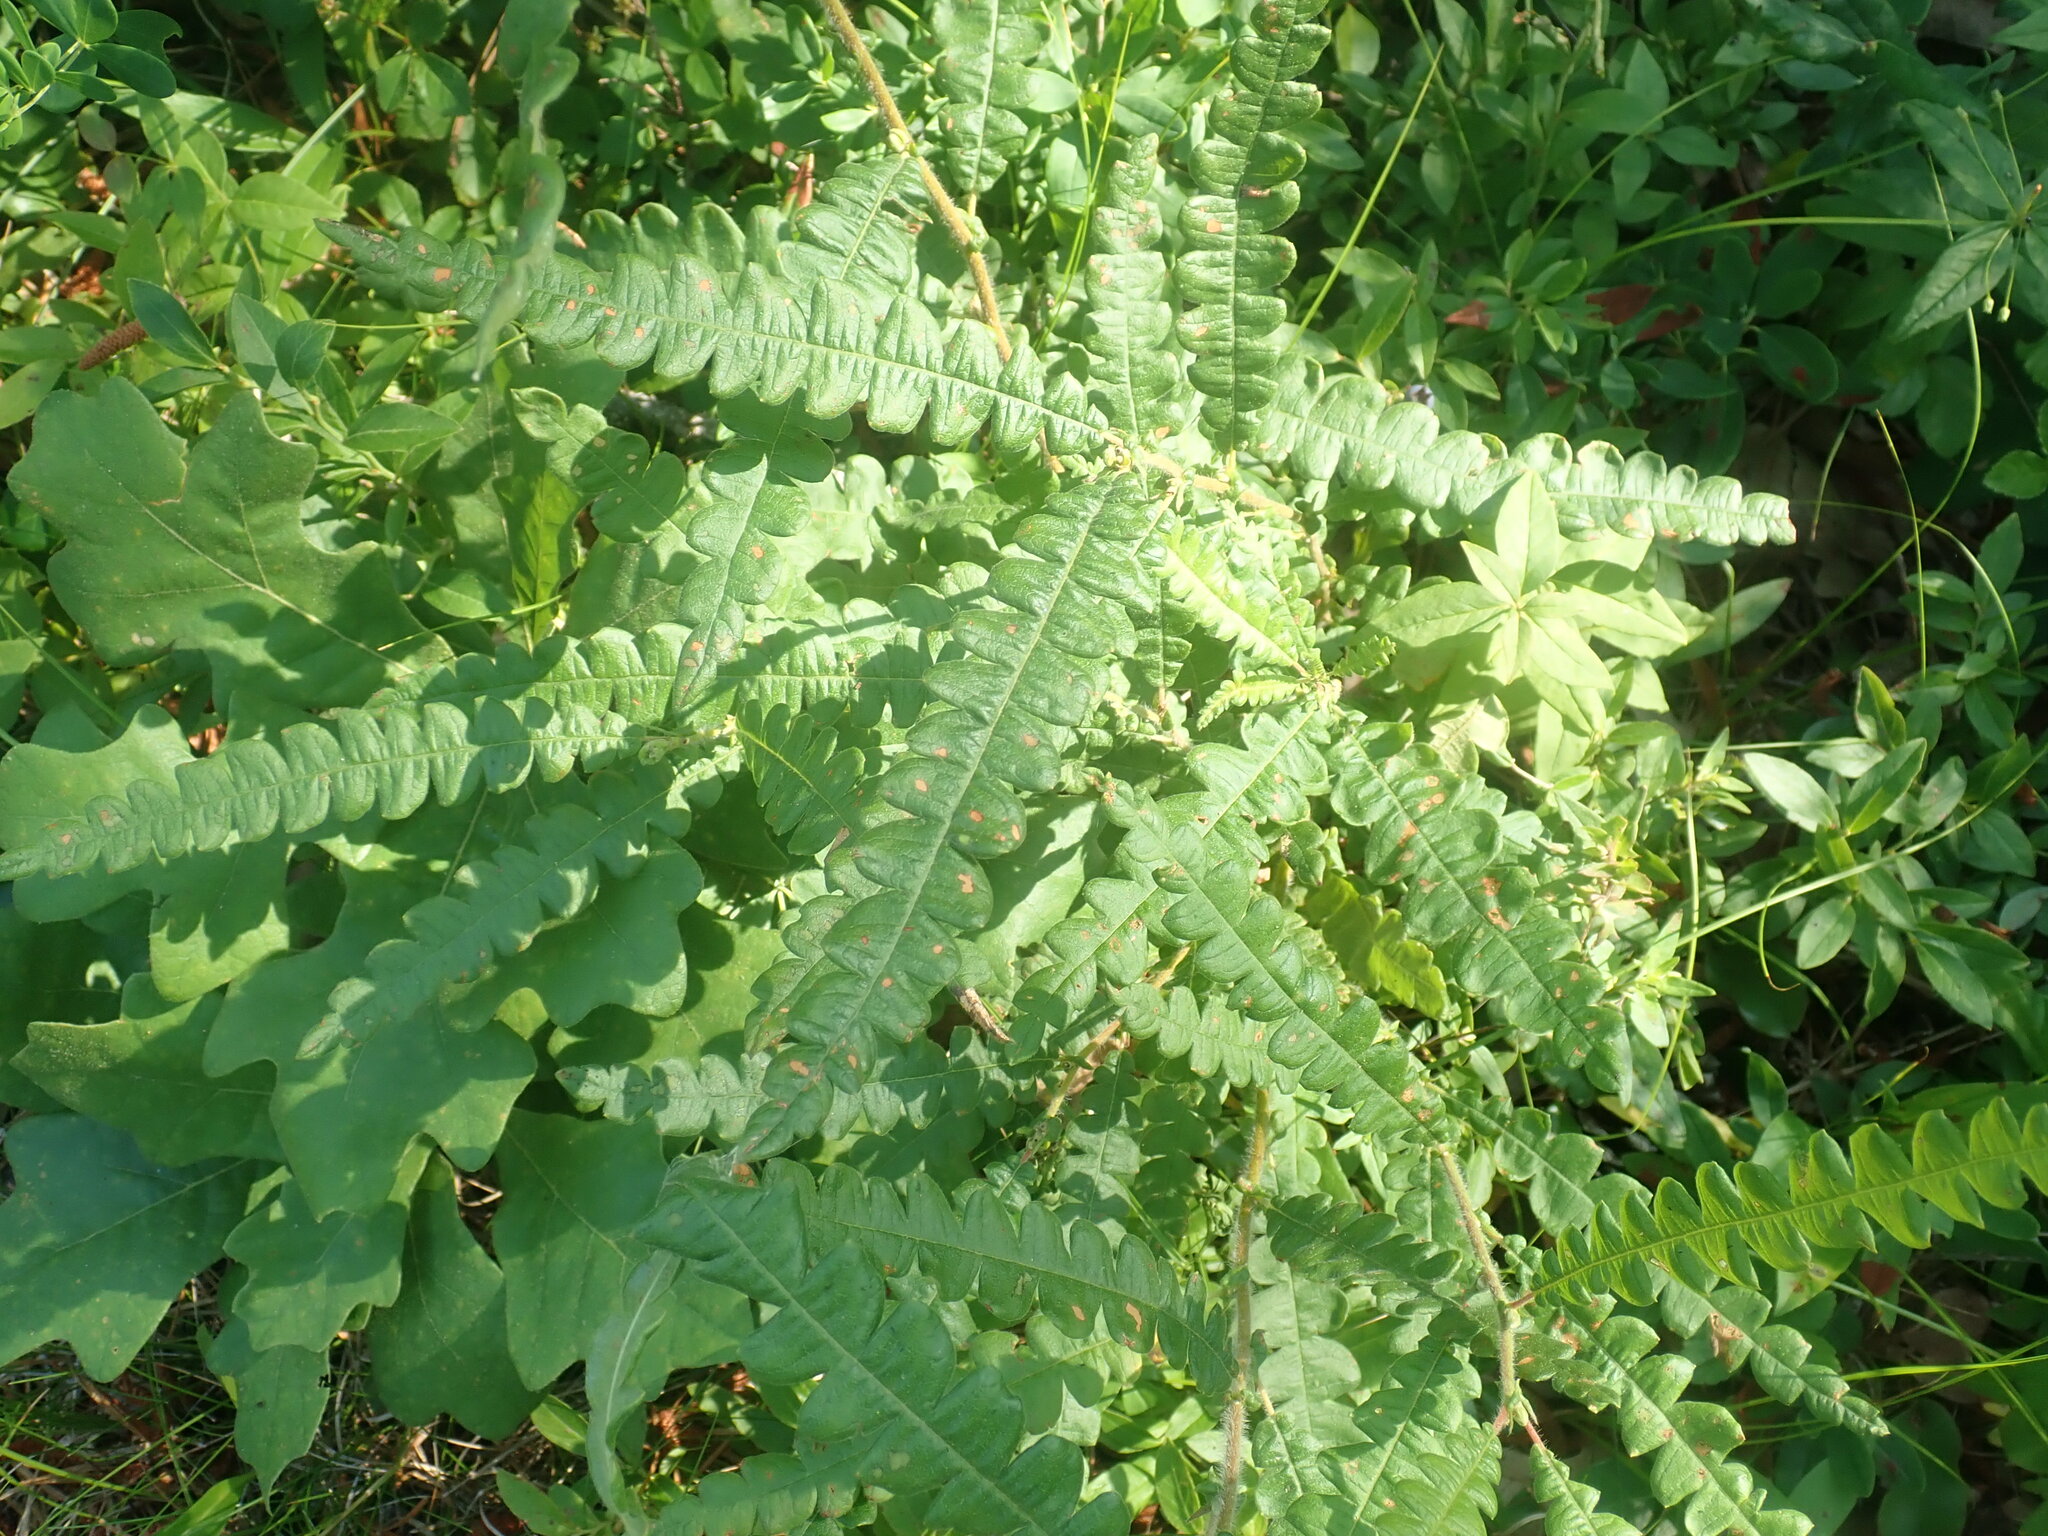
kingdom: Plantae
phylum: Tracheophyta
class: Magnoliopsida
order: Fagales
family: Myricaceae
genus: Comptonia
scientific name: Comptonia peregrina
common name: Sweet-fern
